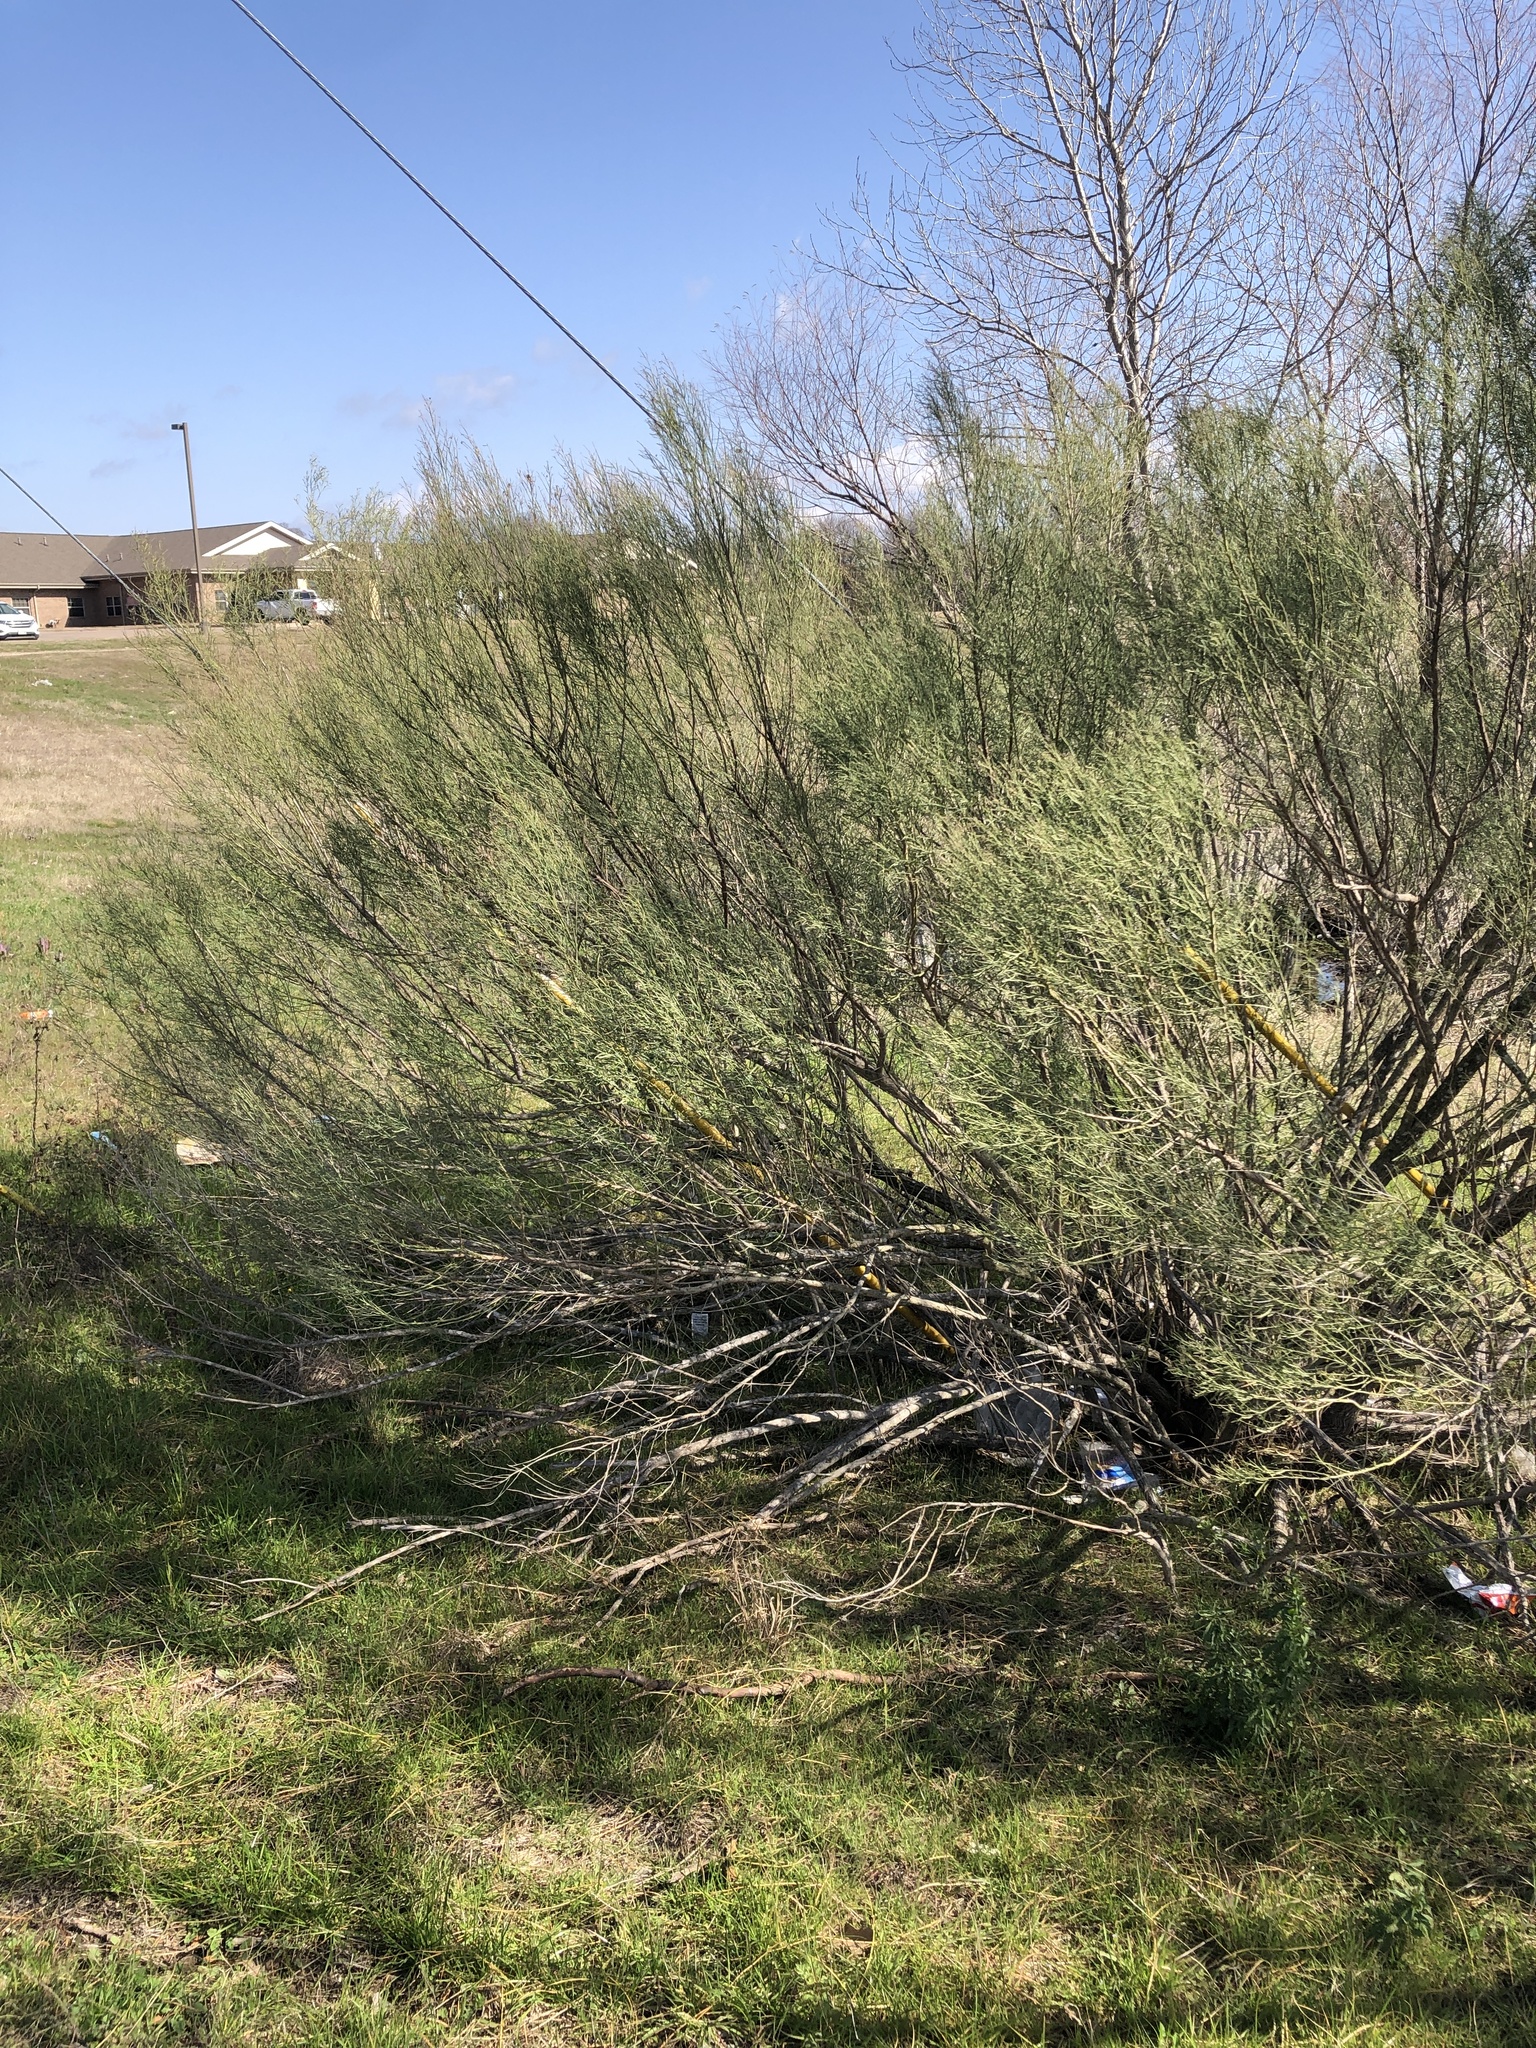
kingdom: Plantae
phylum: Tracheophyta
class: Magnoliopsida
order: Asterales
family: Asteraceae
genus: Baccharis
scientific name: Baccharis neglecta
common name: Roosevelt-weed
